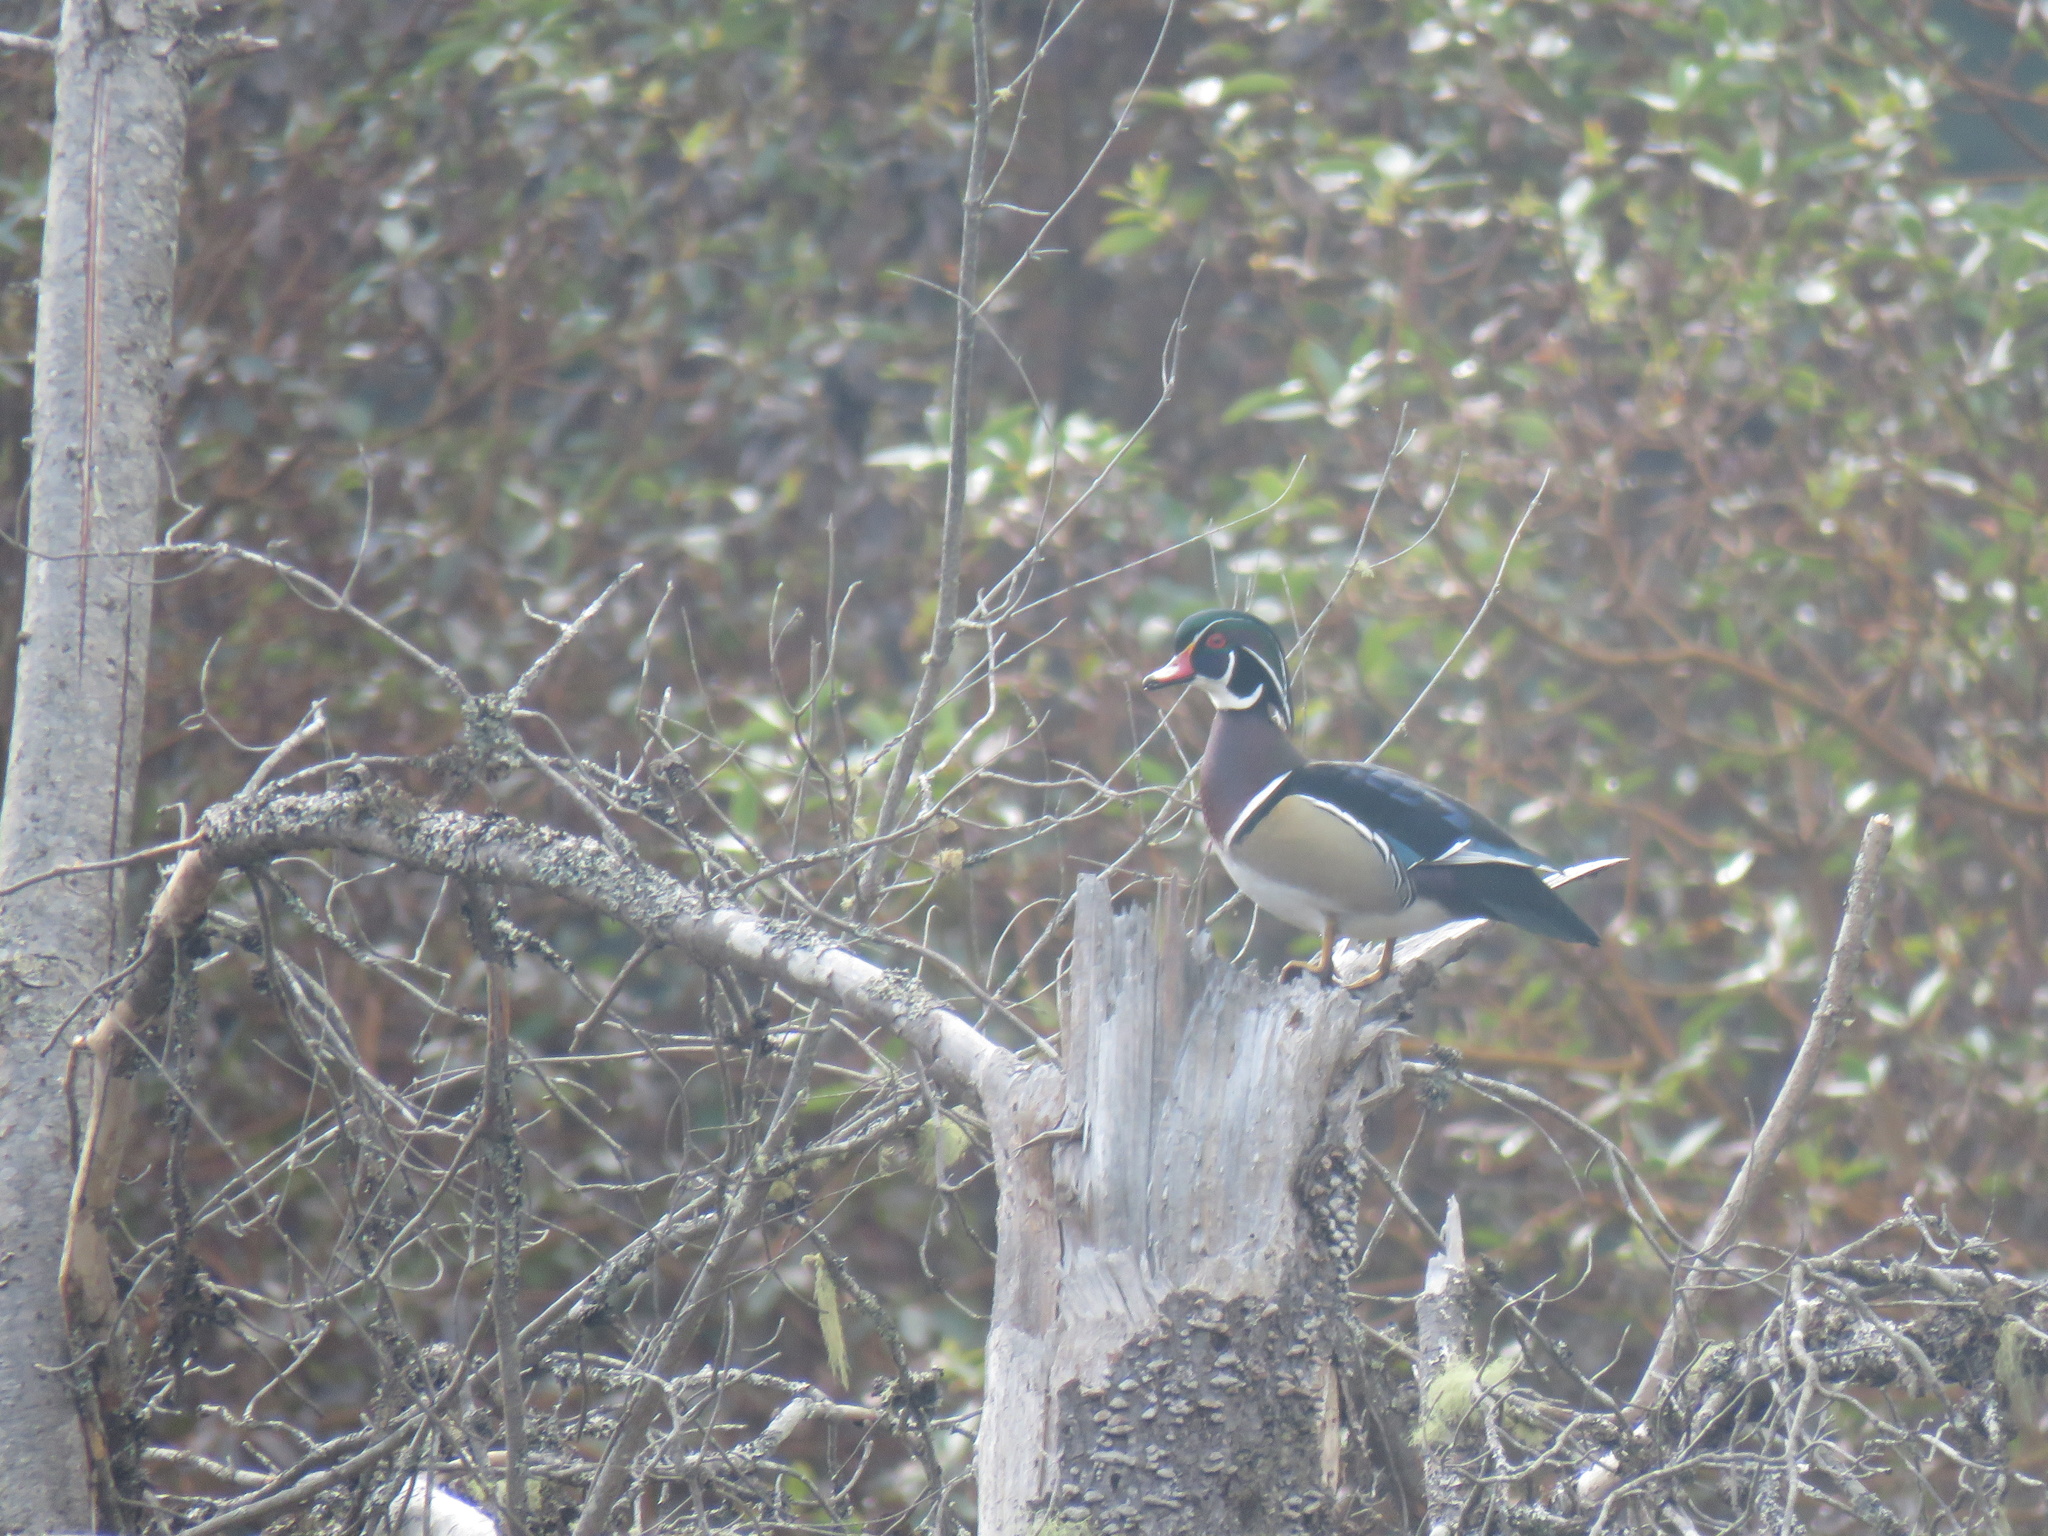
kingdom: Animalia
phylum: Chordata
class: Aves
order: Anseriformes
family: Anatidae
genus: Aix
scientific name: Aix sponsa
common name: Wood duck
